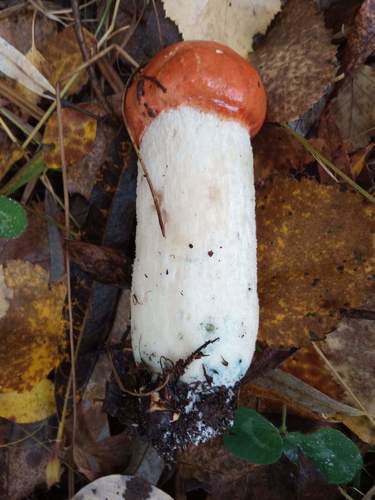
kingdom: Fungi
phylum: Basidiomycota
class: Agaricomycetes
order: Boletales
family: Boletaceae
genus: Leccinum
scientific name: Leccinum albostipitatum
